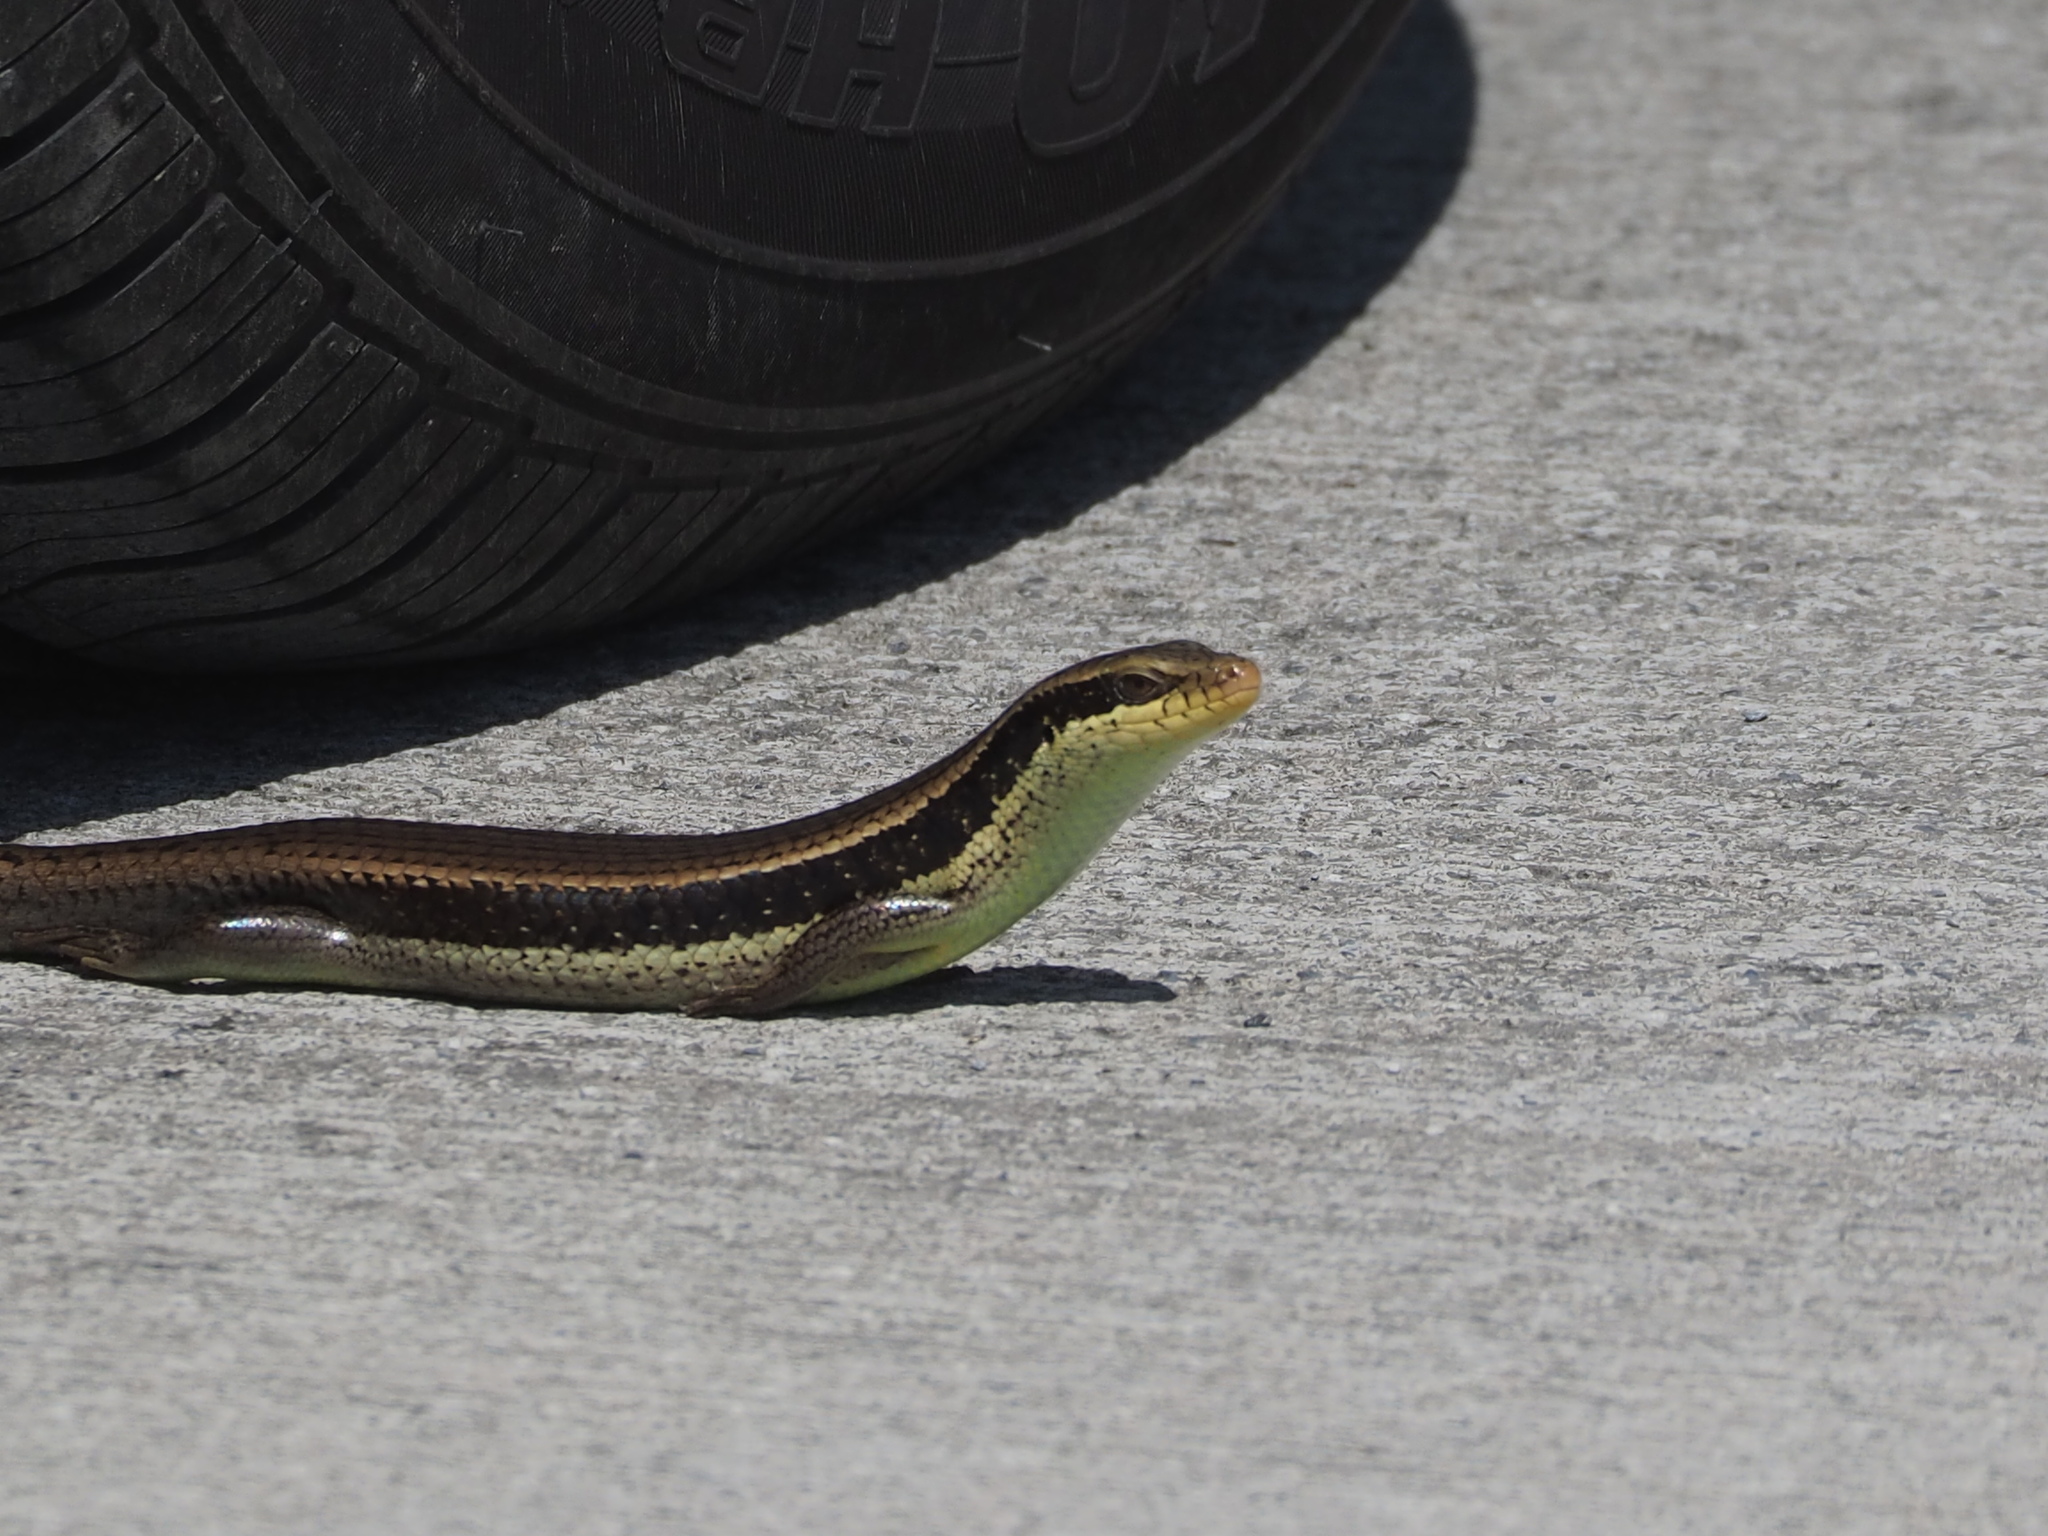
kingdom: Animalia
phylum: Chordata
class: Squamata
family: Scincidae
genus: Eutropis
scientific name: Eutropis longicaudata
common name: Long-tailed sun skink
